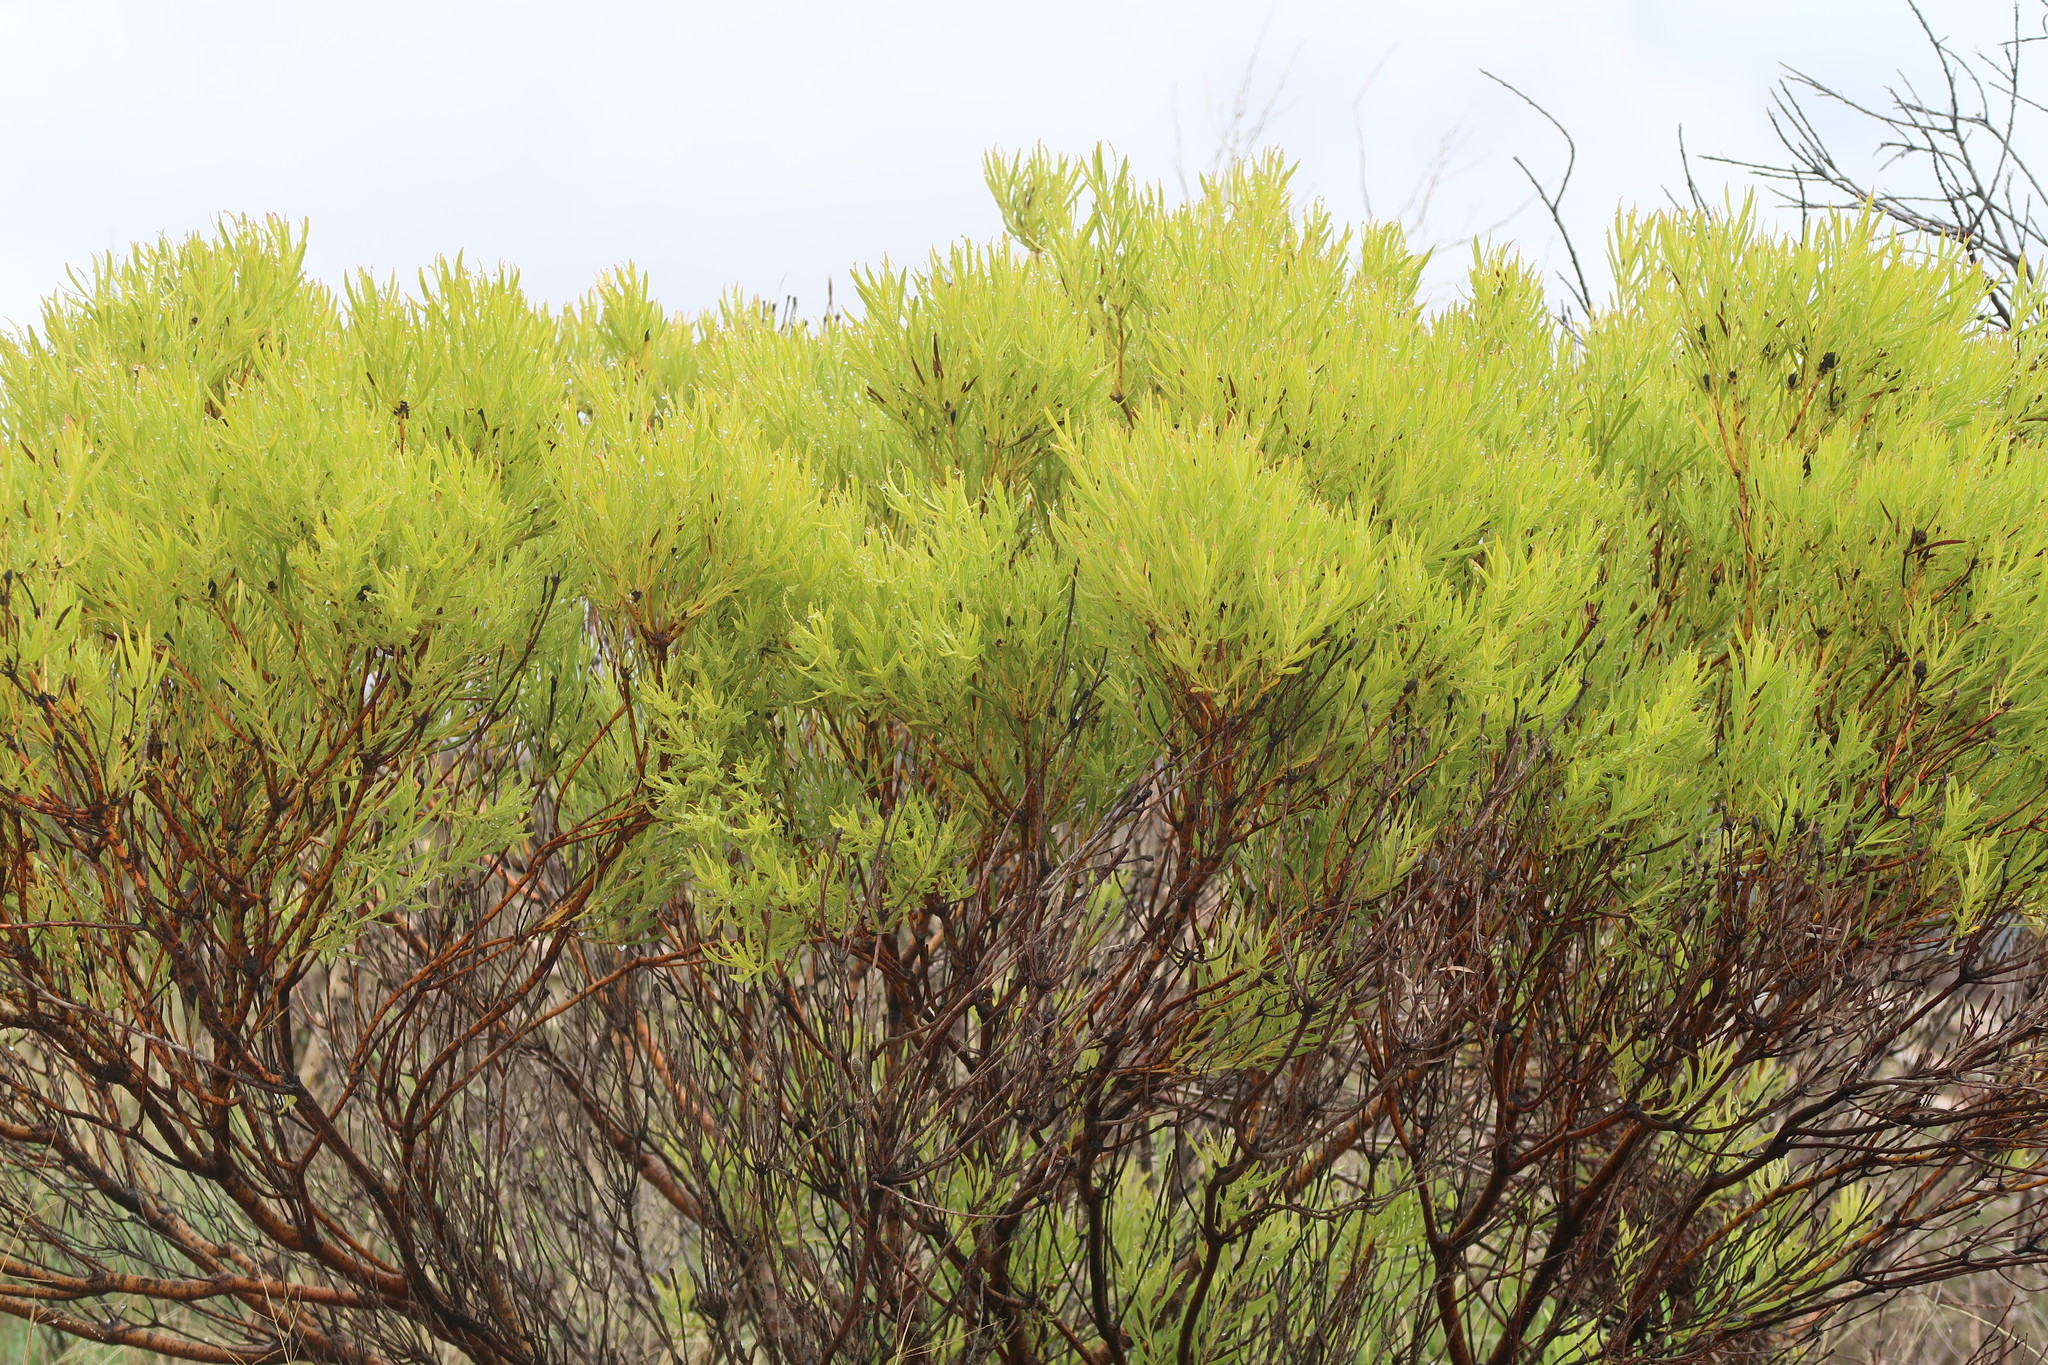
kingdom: Plantae
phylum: Tracheophyta
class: Magnoliopsida
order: Proteales
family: Proteaceae
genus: Leucadendron
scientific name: Leucadendron salignum
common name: Common sunshine conebush
